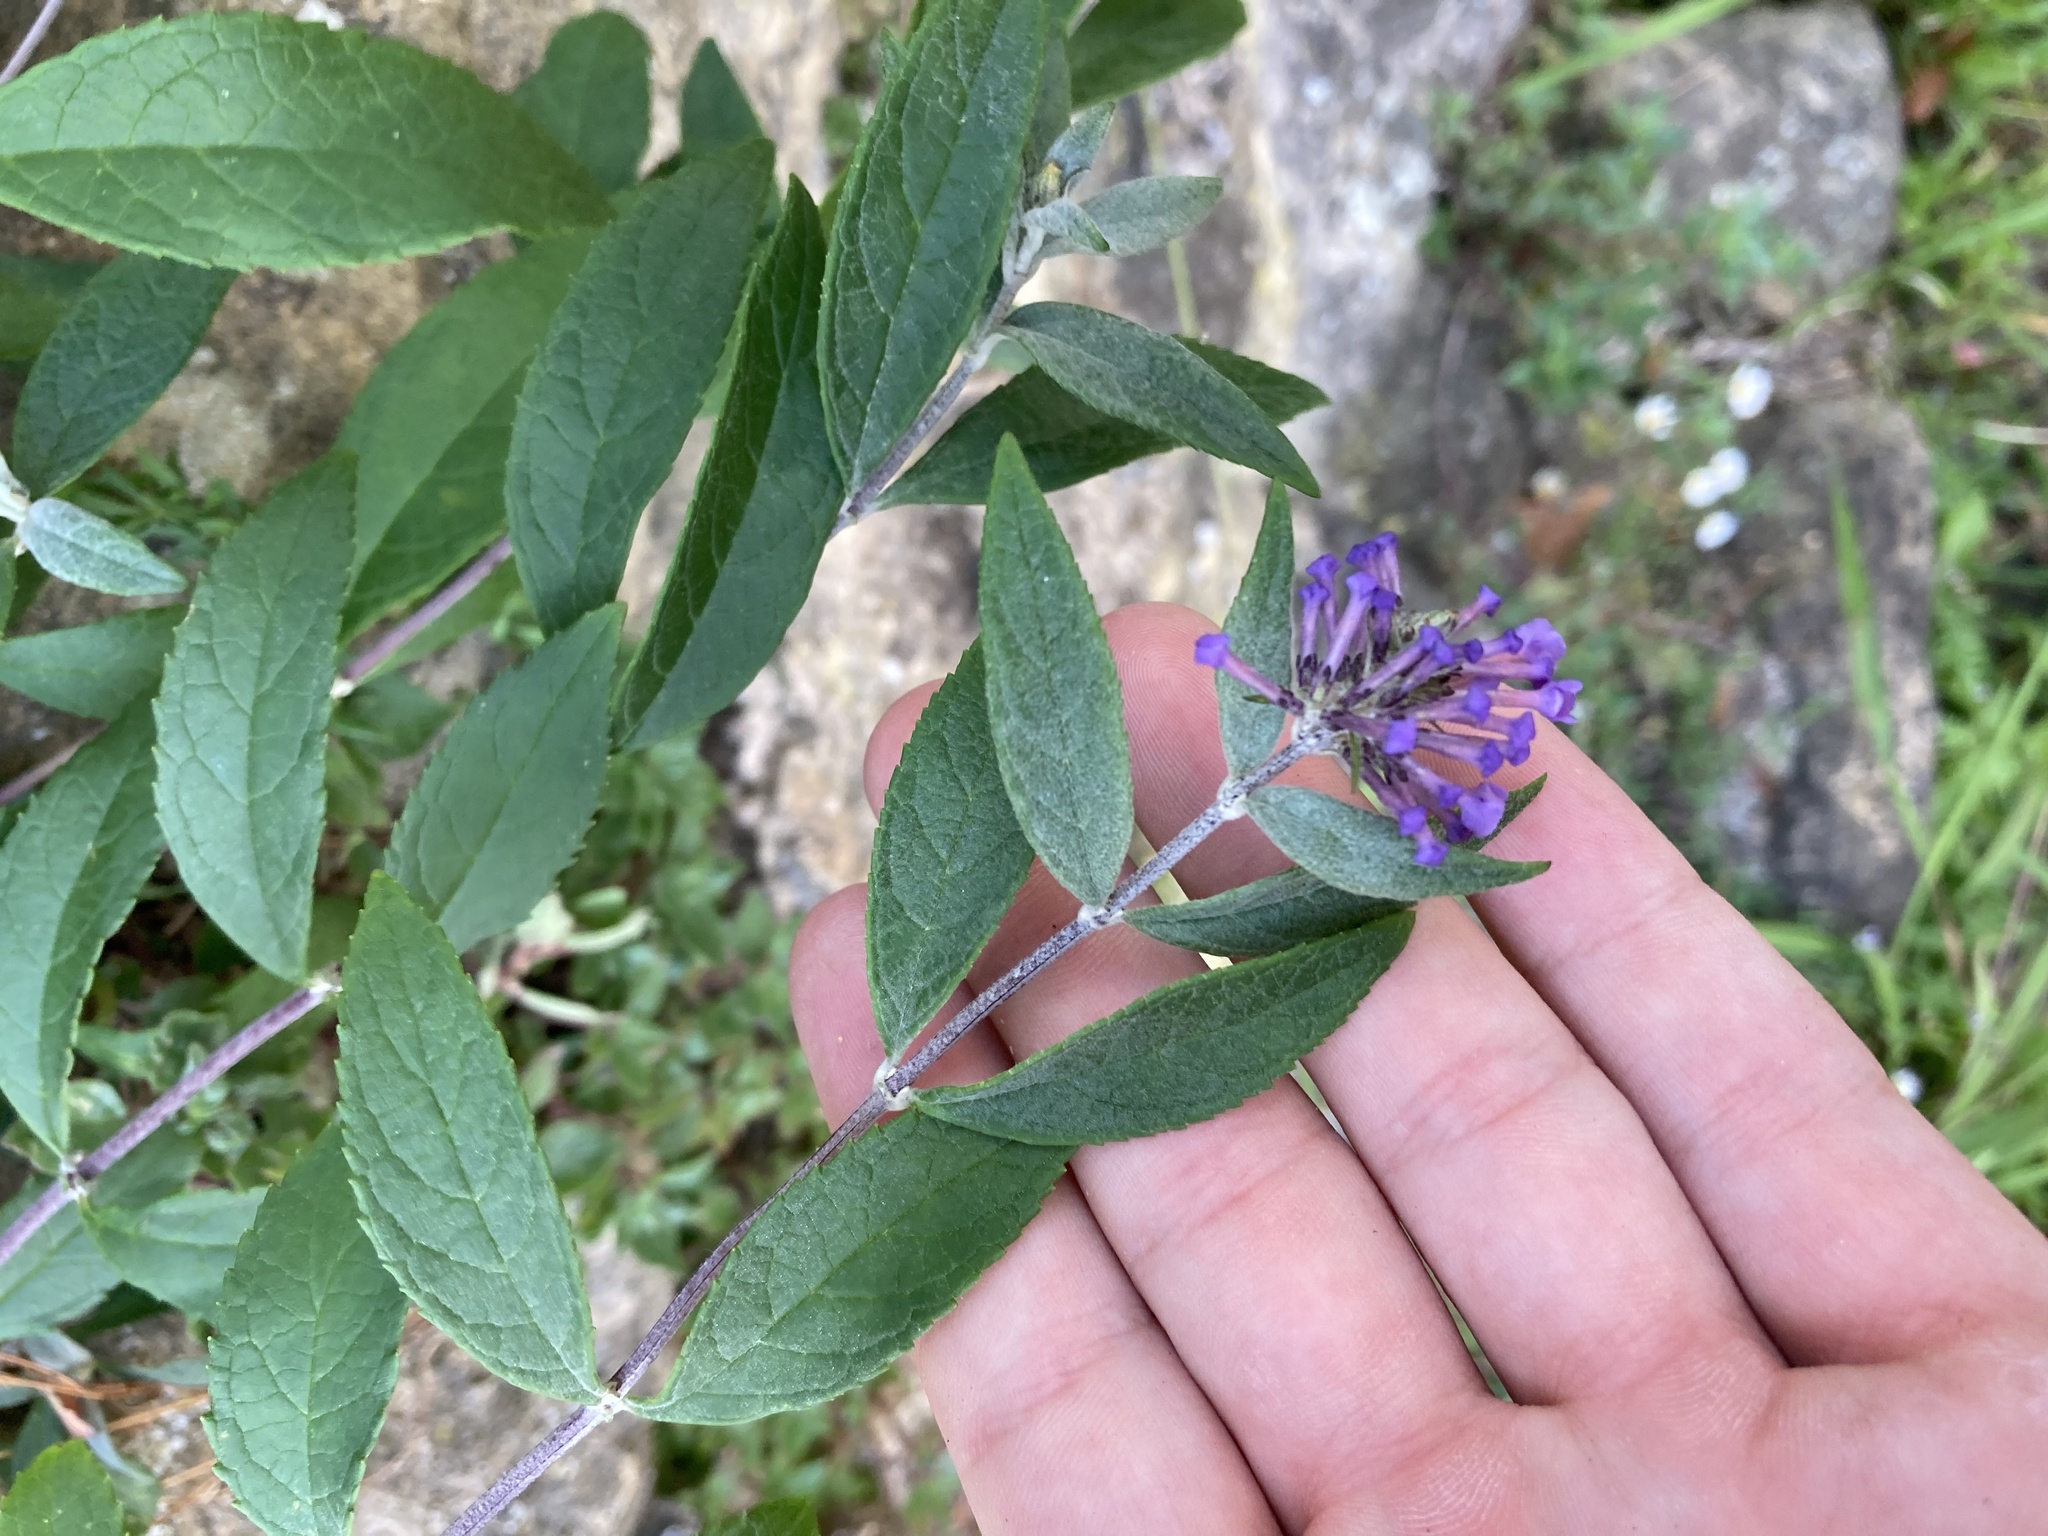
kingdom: Plantae
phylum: Tracheophyta
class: Magnoliopsida
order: Lamiales
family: Scrophulariaceae
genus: Buddleja
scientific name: Buddleja davidii
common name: Butterfly-bush
